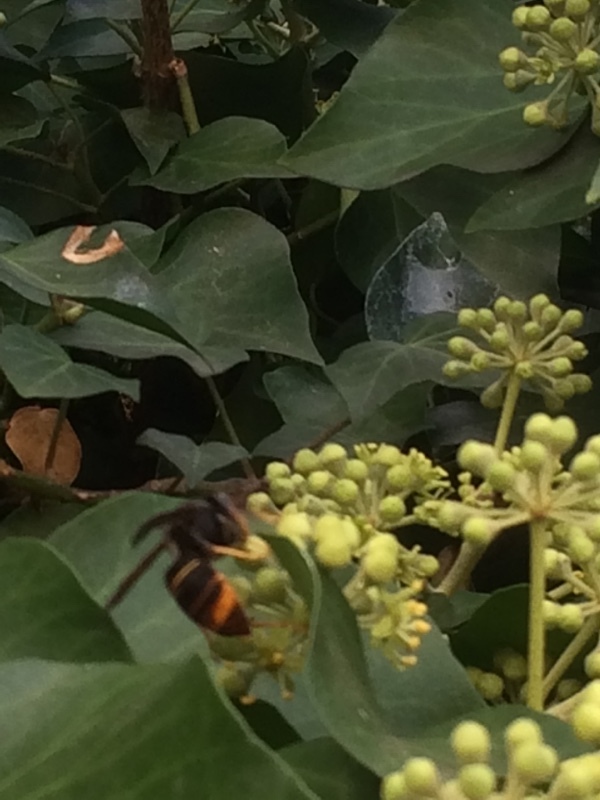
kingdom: Animalia
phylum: Arthropoda
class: Insecta
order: Hymenoptera
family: Vespidae
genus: Vespa
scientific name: Vespa velutina
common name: Asian hornet
